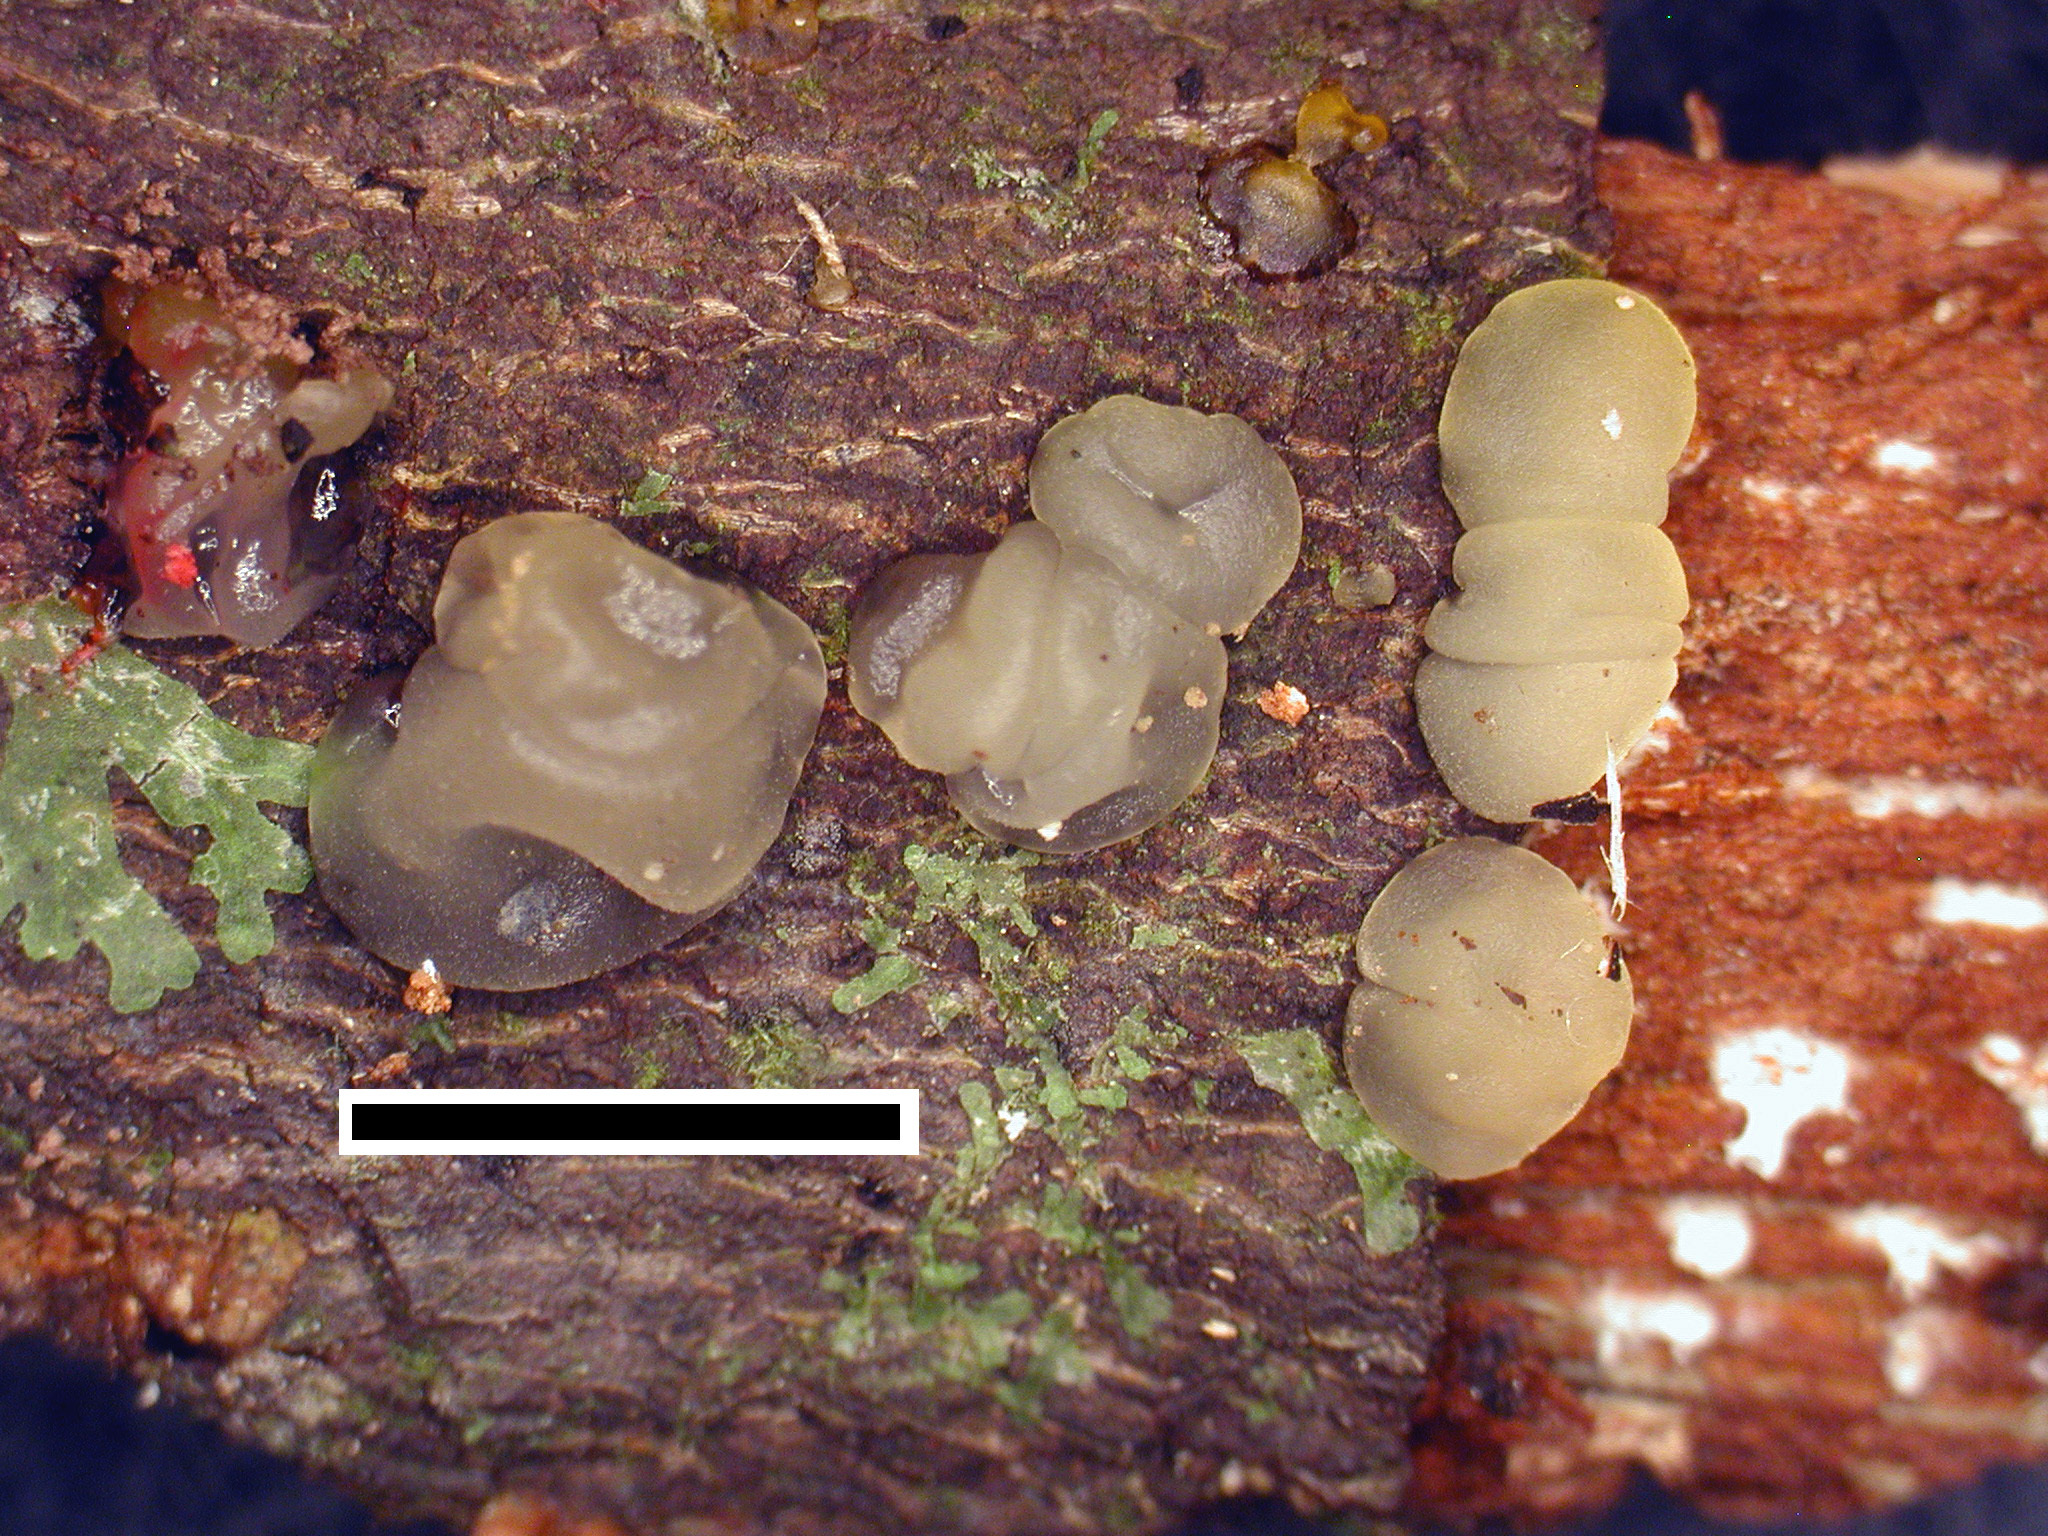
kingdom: Fungi
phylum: Basidiomycota
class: Dacrymycetes
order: Dacrymycetales
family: Dacrymycetaceae
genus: Dacrymyces
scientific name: Dacrymyces novae-zelandiae
